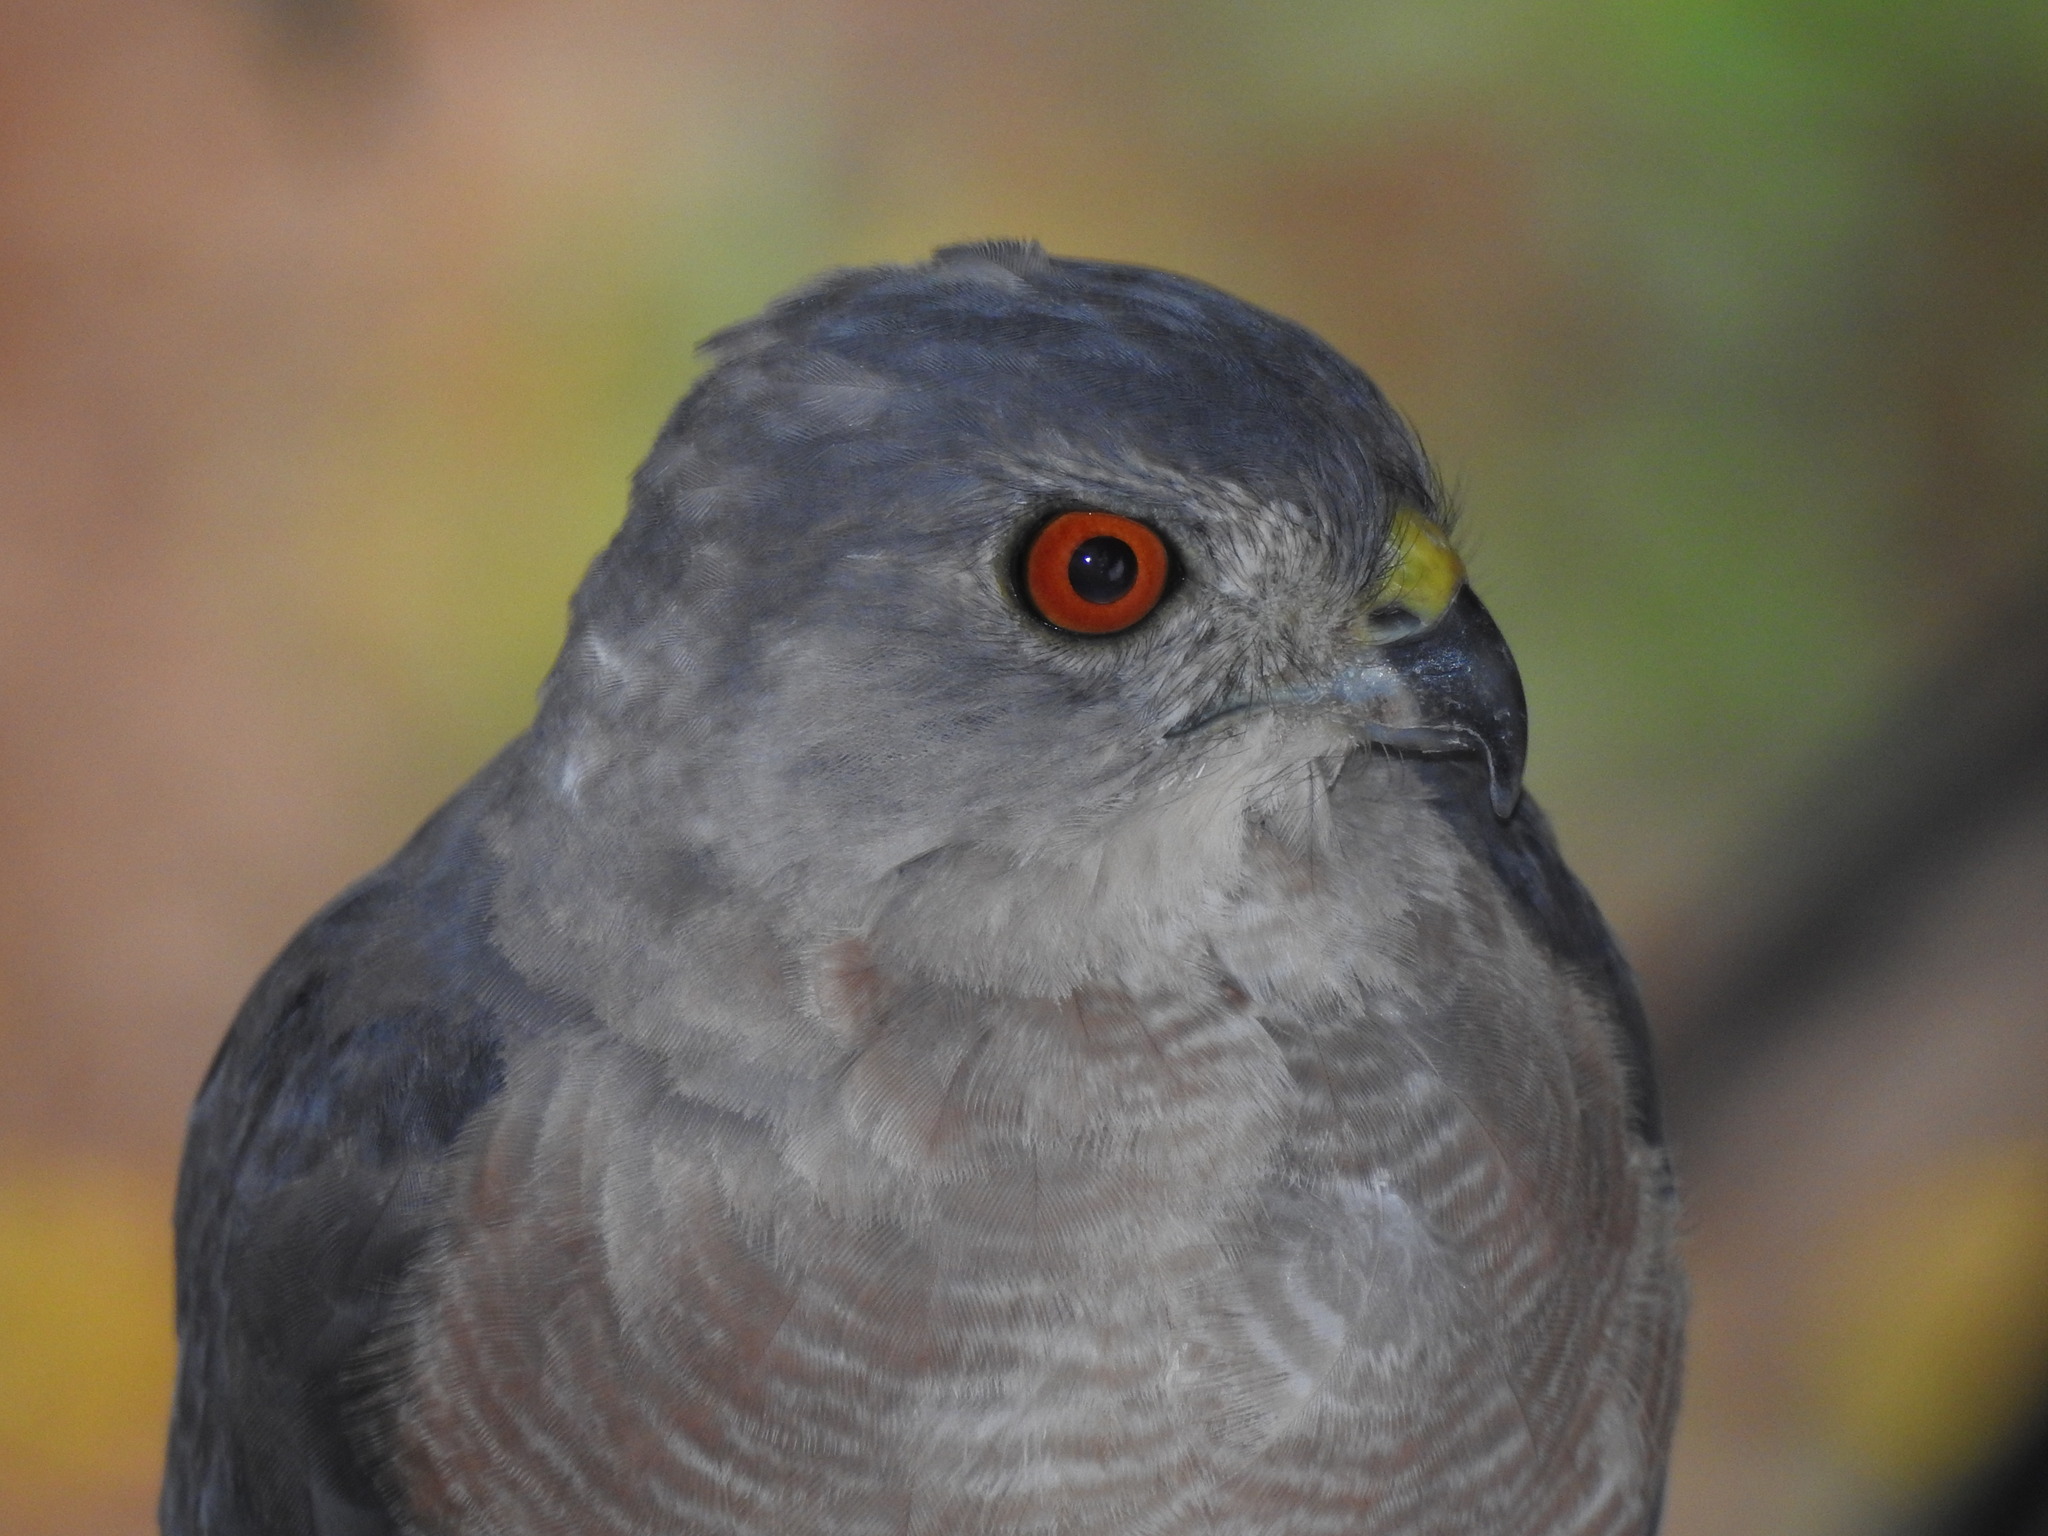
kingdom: Animalia
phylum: Chordata
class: Aves
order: Accipitriformes
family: Accipitridae
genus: Accipiter
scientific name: Accipiter badius
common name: Shikra
